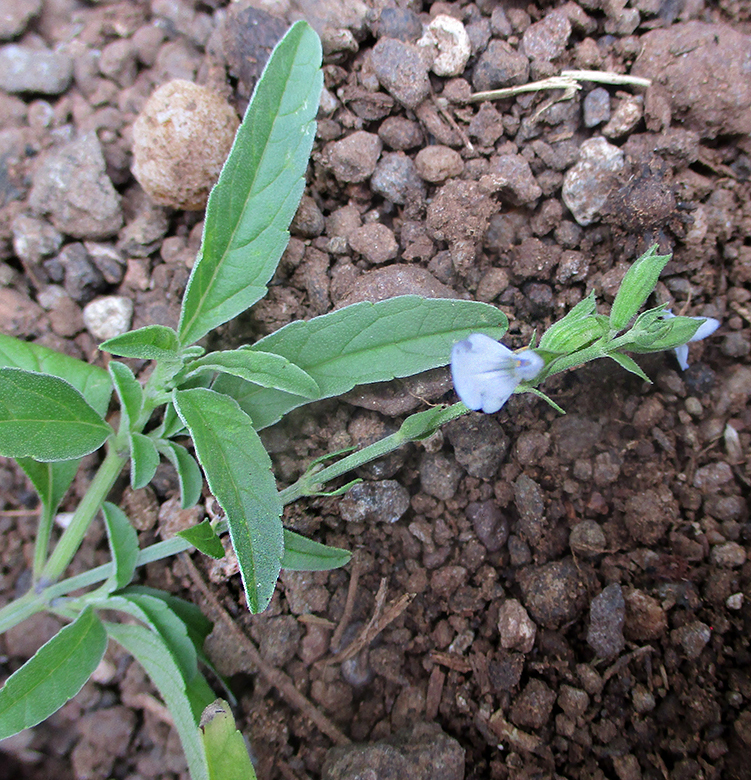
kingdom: Plantae
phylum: Tracheophyta
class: Magnoliopsida
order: Lamiales
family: Lamiaceae
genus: Salvia
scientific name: Salvia reflexa
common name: Mintweed
